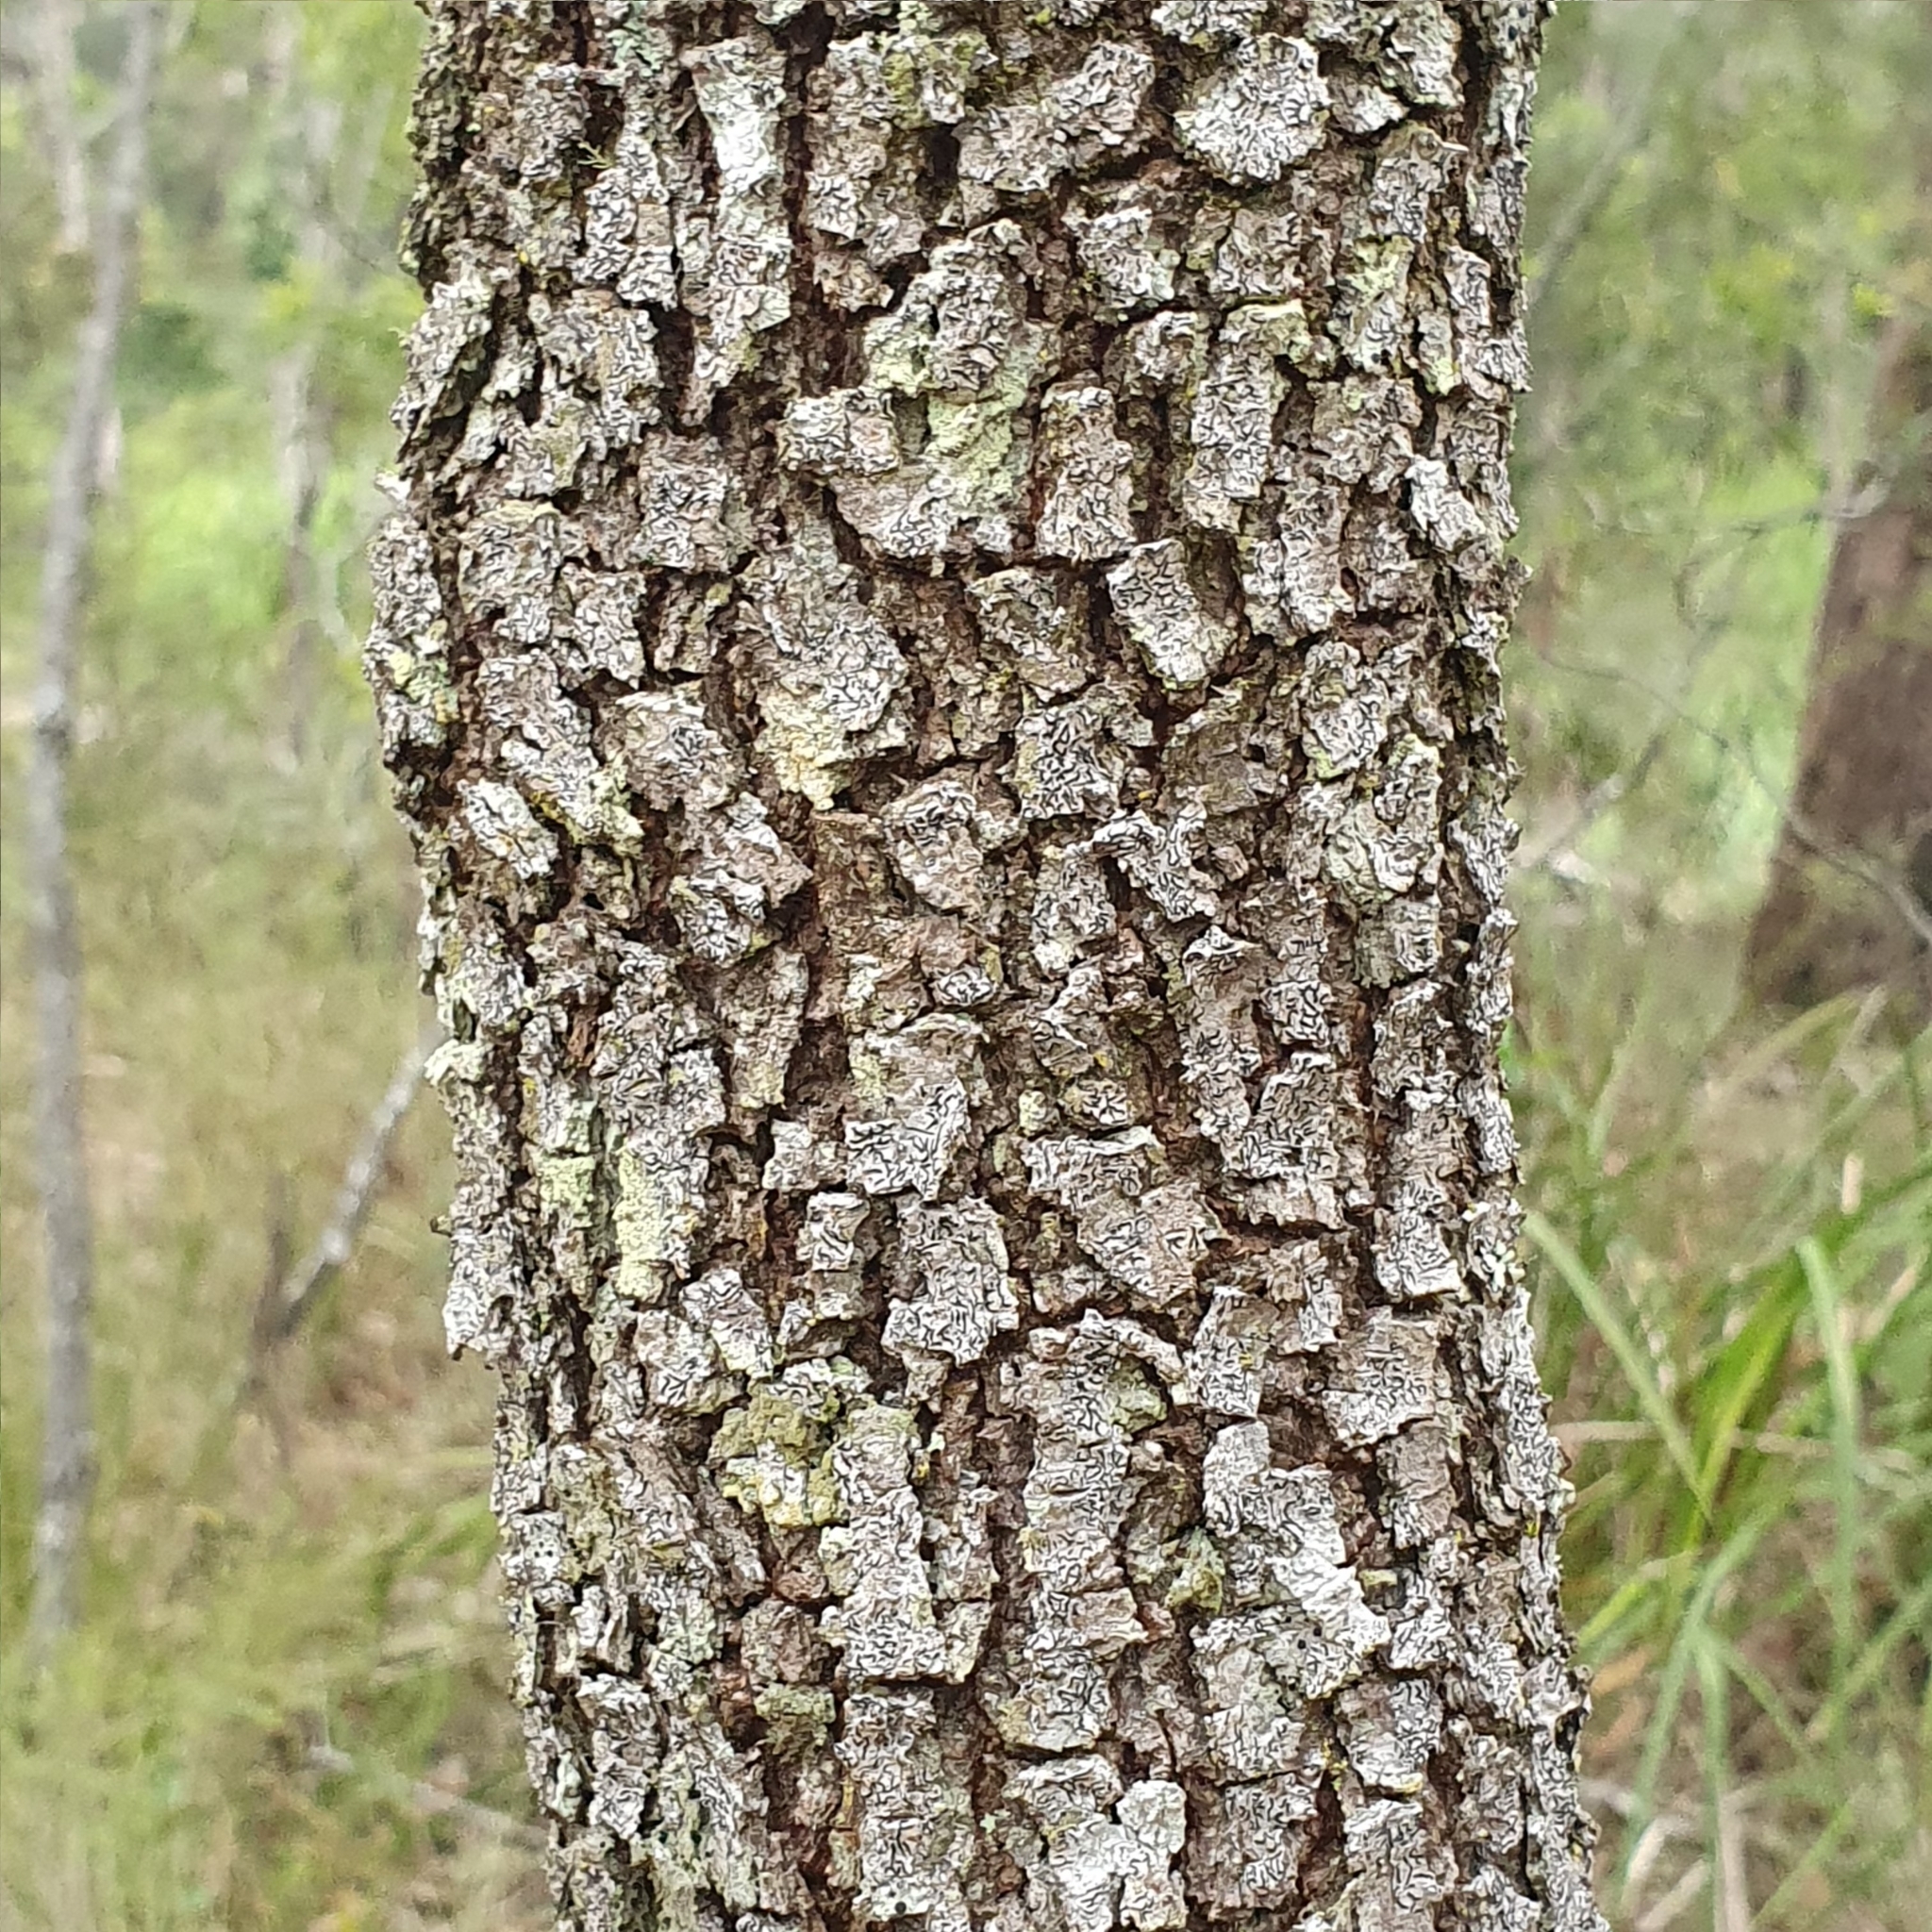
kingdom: Plantae
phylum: Tracheophyta
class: Magnoliopsida
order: Fabales
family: Fabaceae
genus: Acacia
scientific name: Acacia implexa
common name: Black wattle
